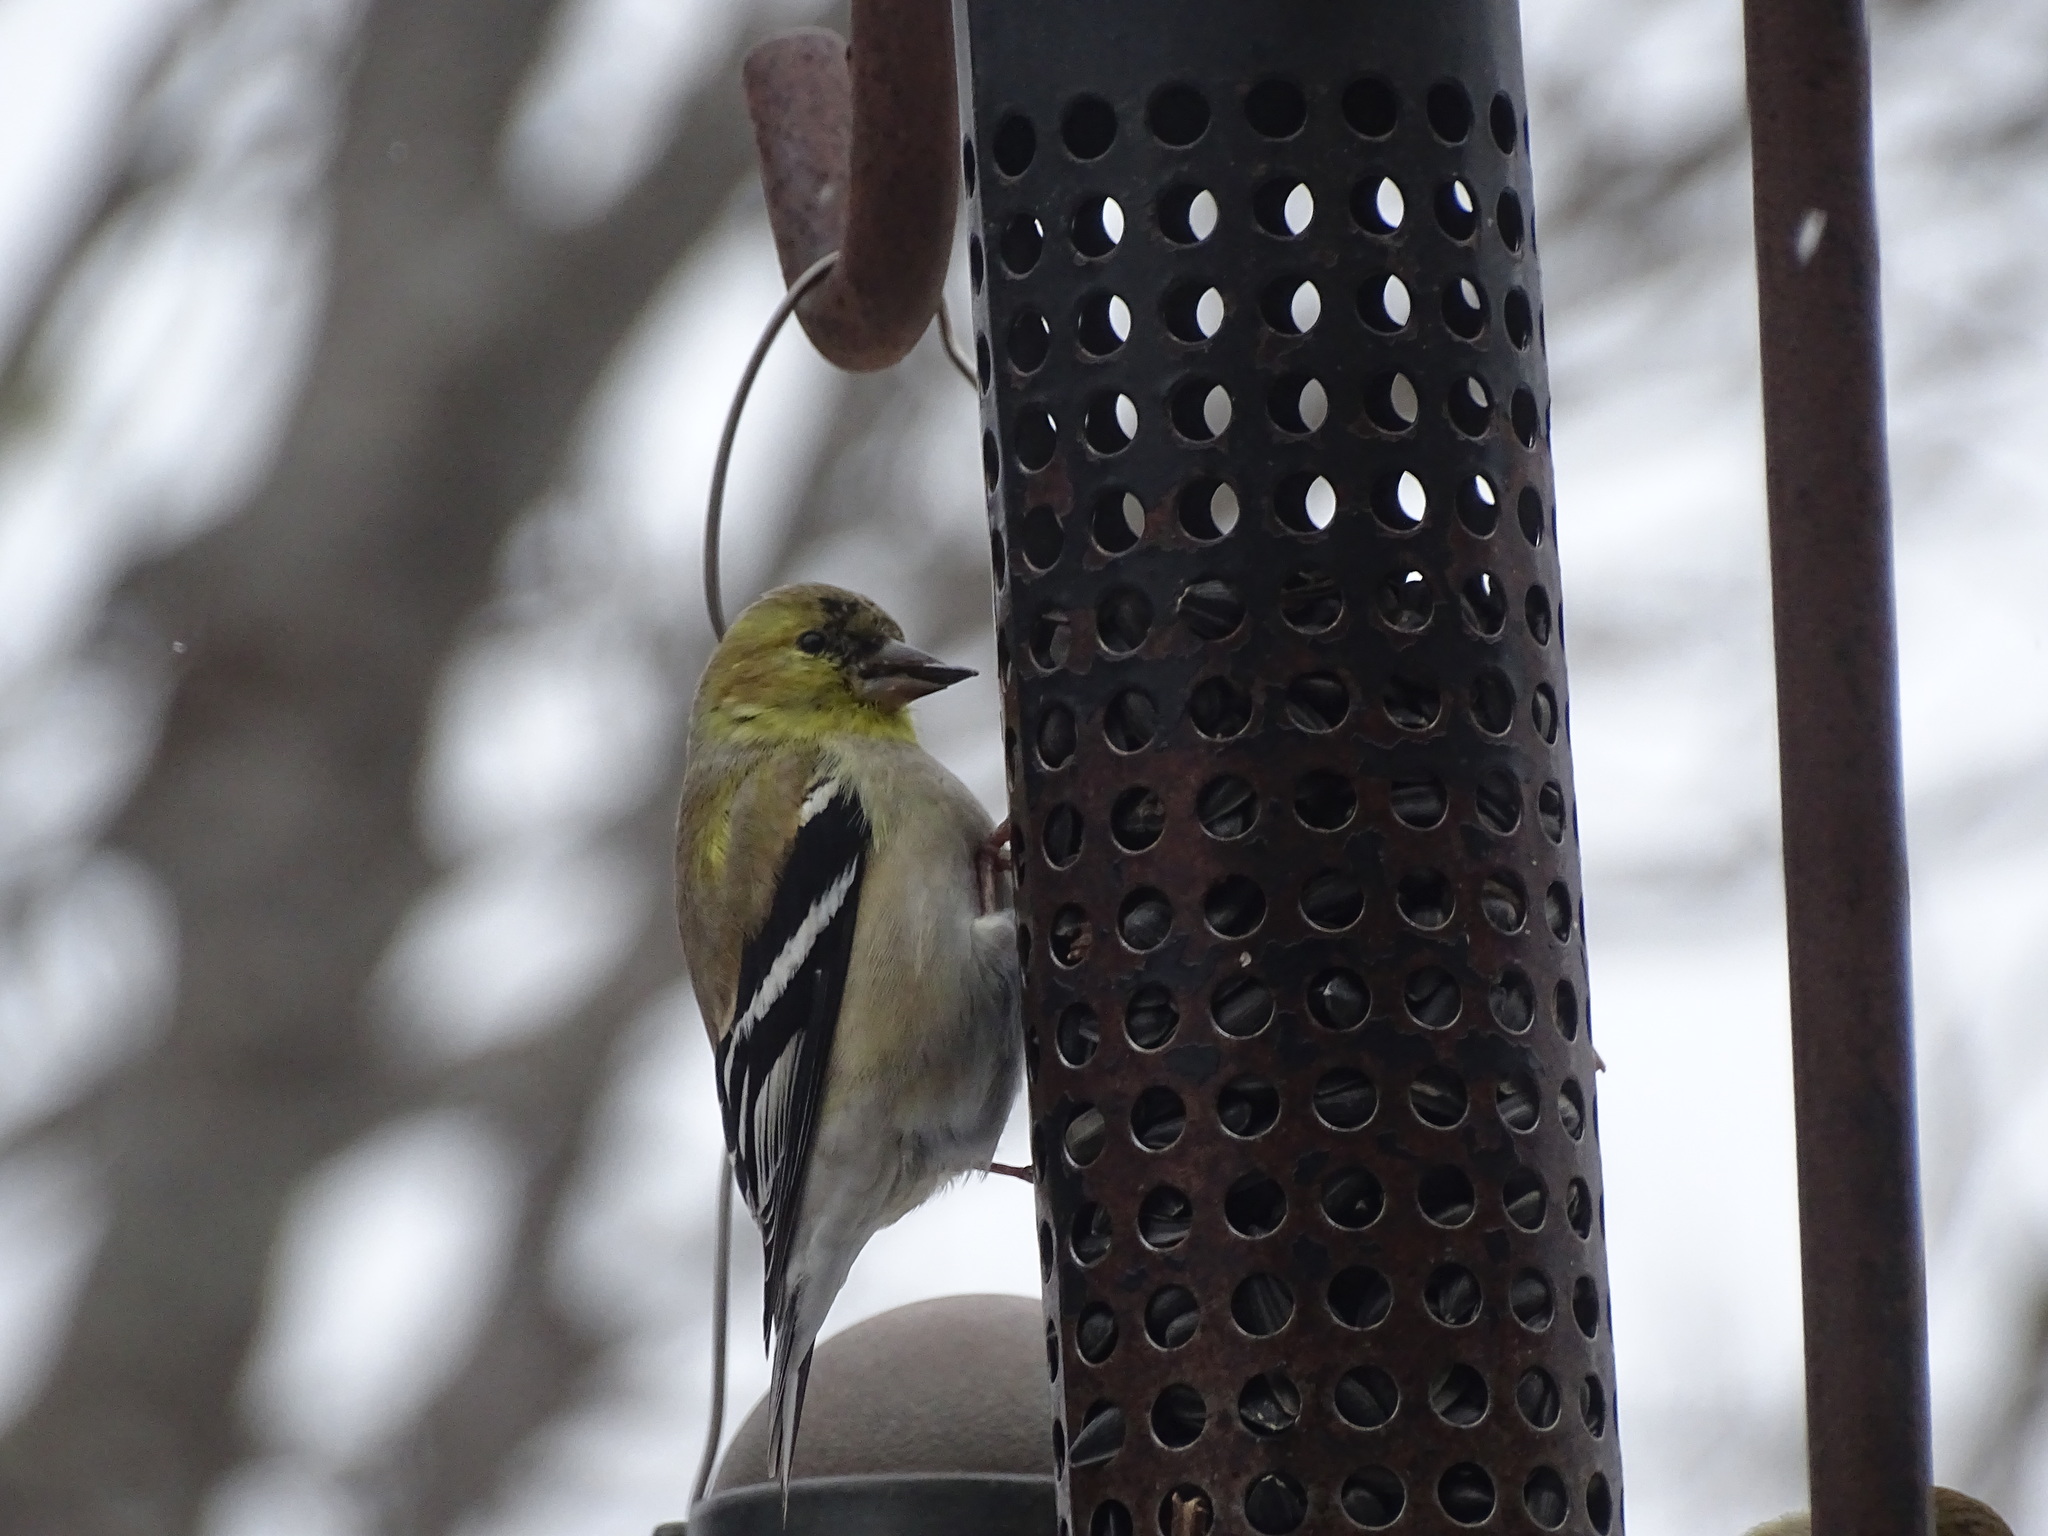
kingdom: Animalia
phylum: Chordata
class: Aves
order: Passeriformes
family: Fringillidae
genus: Spinus
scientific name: Spinus tristis
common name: American goldfinch
